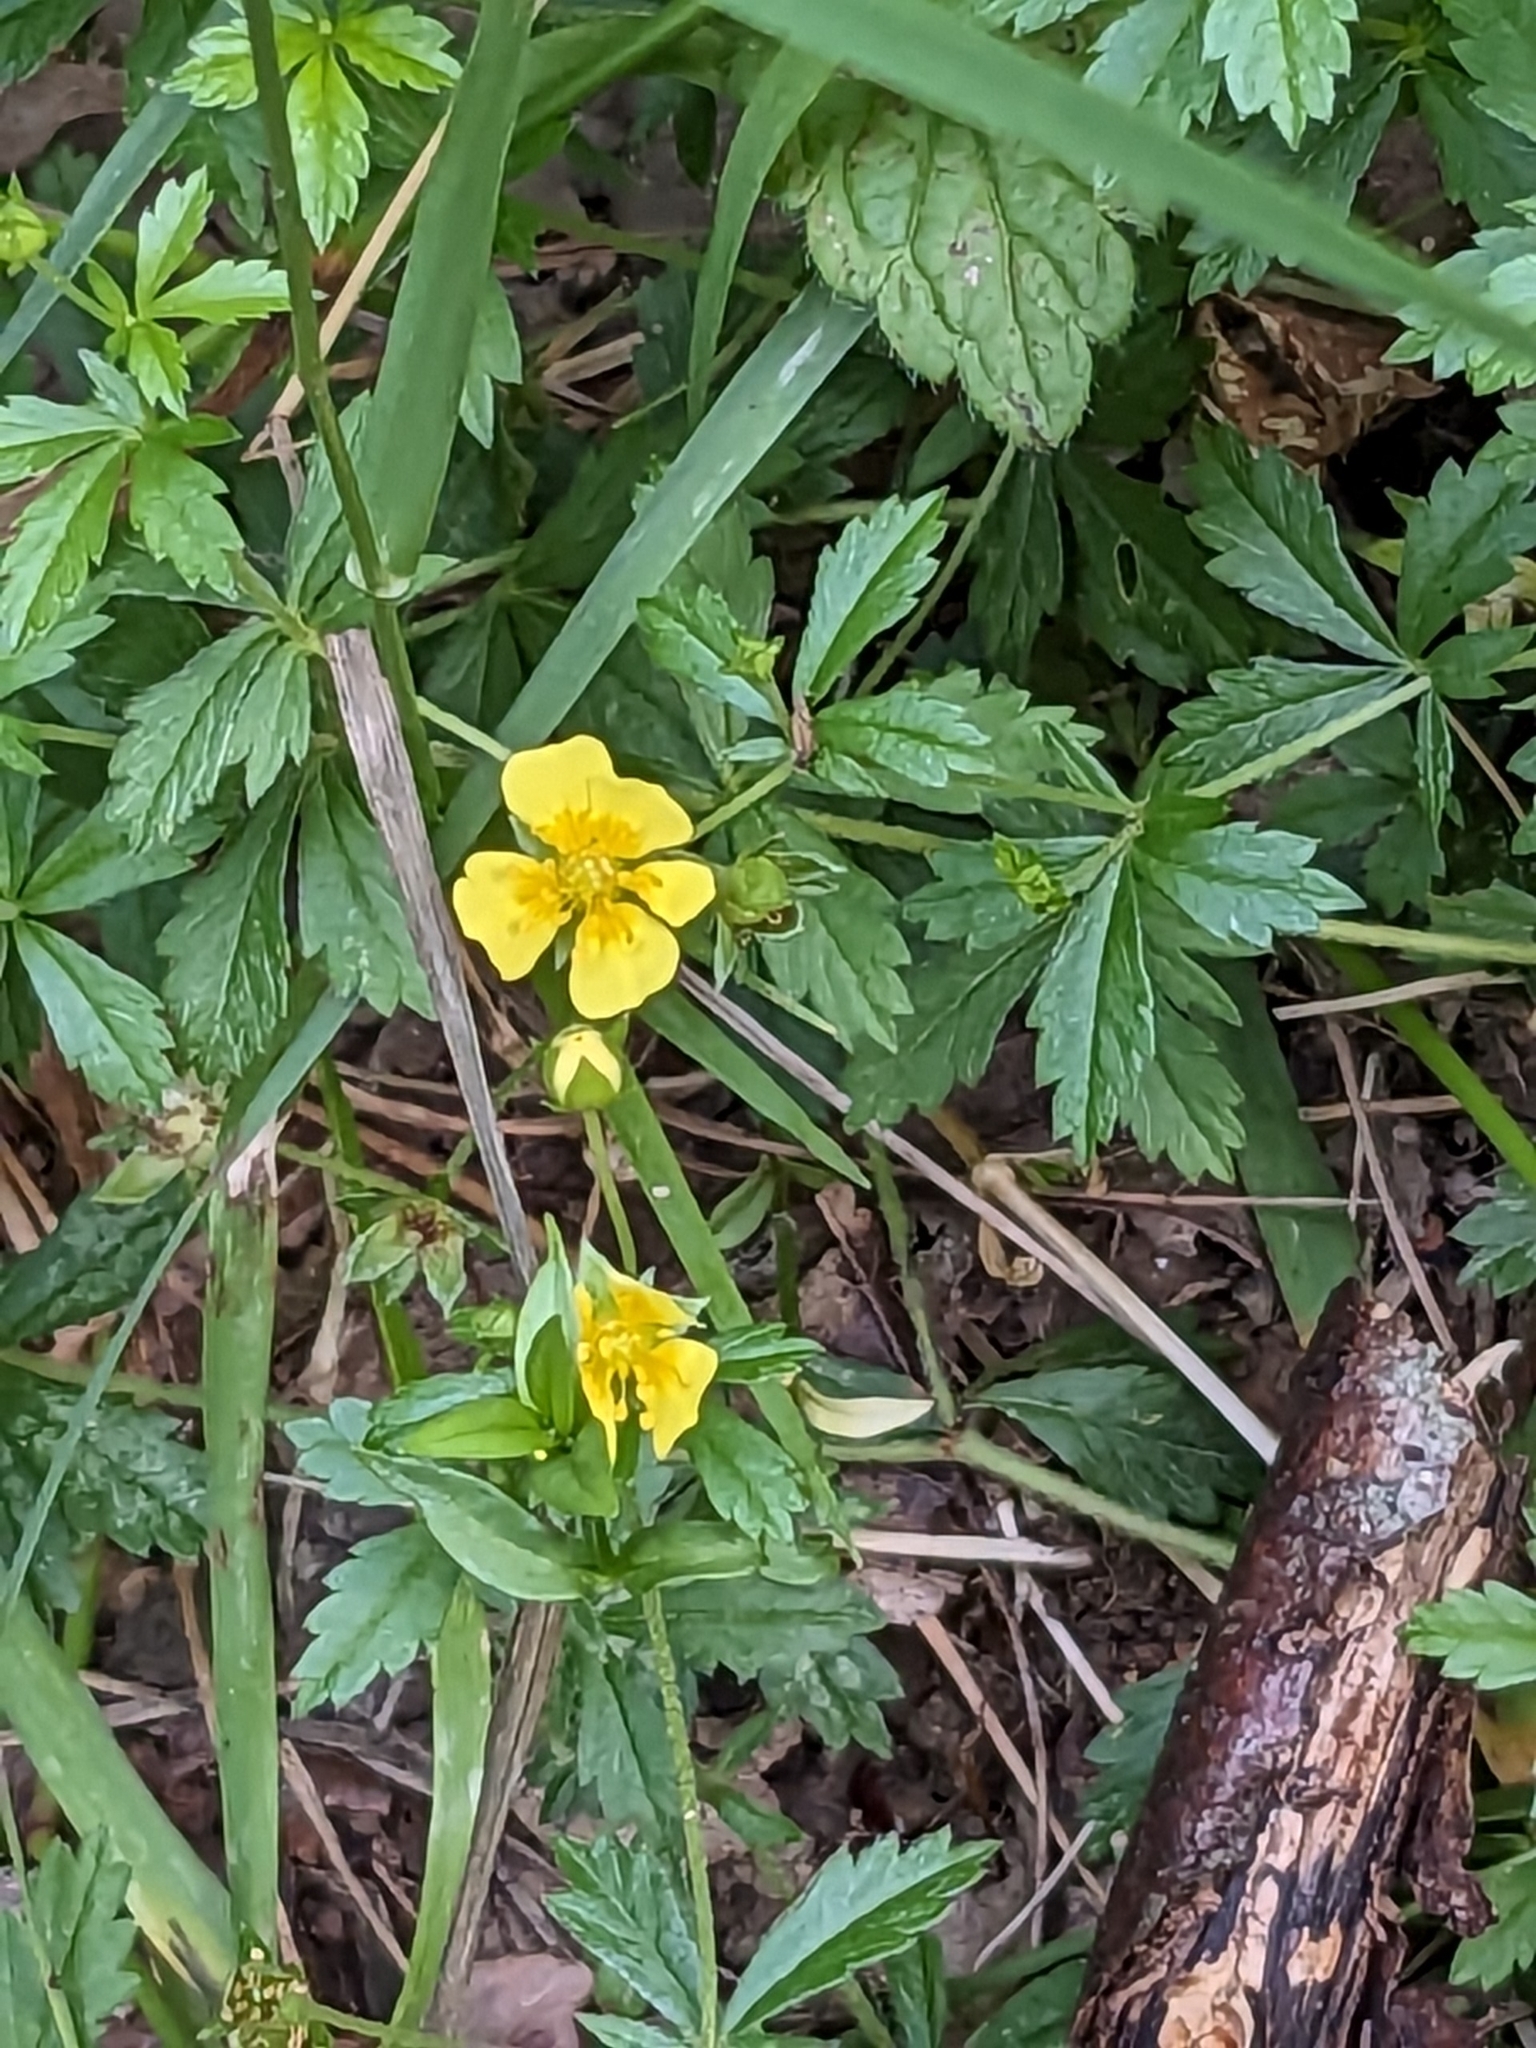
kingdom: Plantae
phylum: Tracheophyta
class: Magnoliopsida
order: Rosales
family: Rosaceae
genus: Potentilla
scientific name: Potentilla erecta
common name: Tormentil
